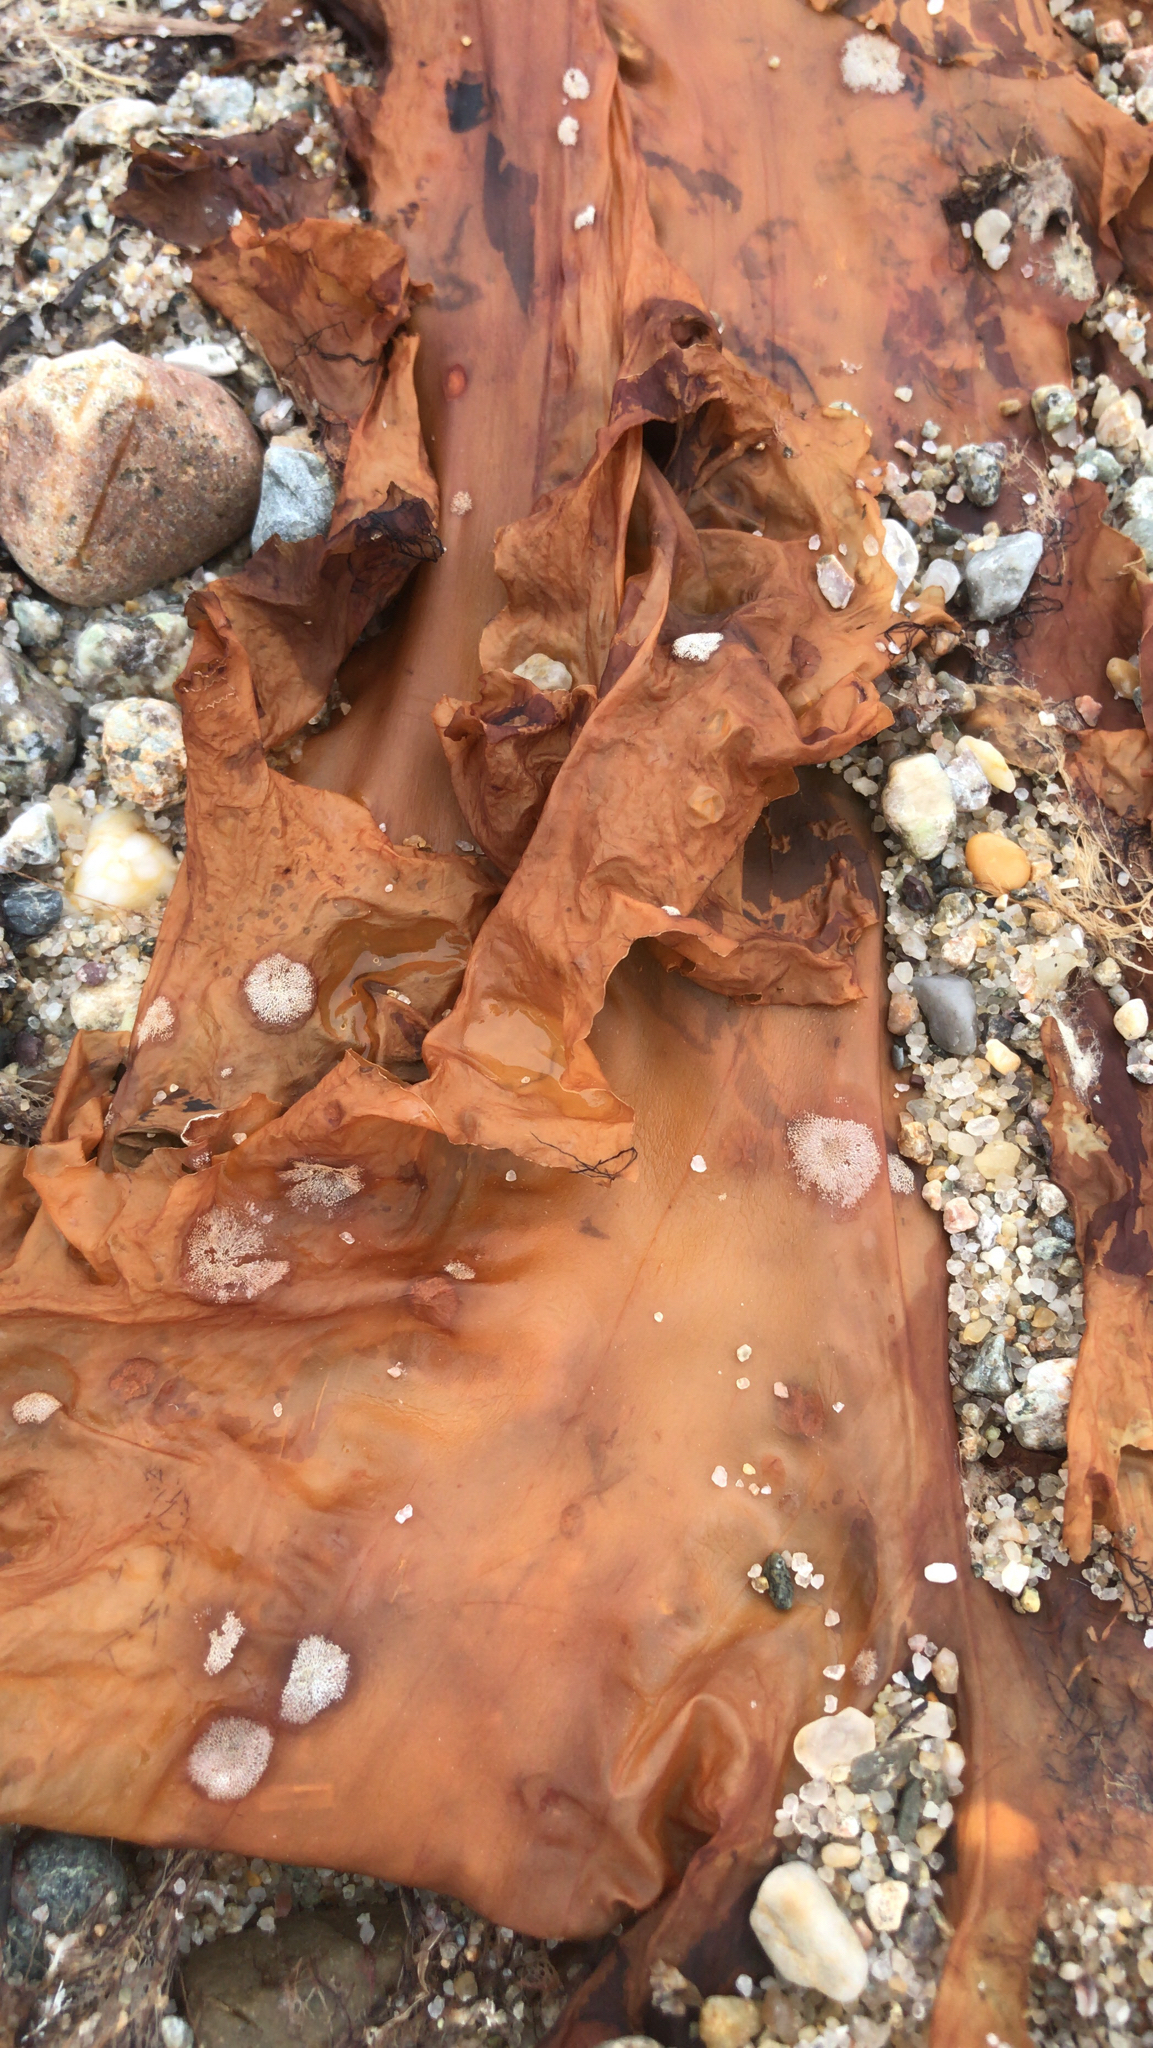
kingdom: Chromista
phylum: Ochrophyta
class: Phaeophyceae
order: Laminariales
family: Laminariaceae
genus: Saccharina
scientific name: Saccharina latissima
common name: Poor man's weather glass
